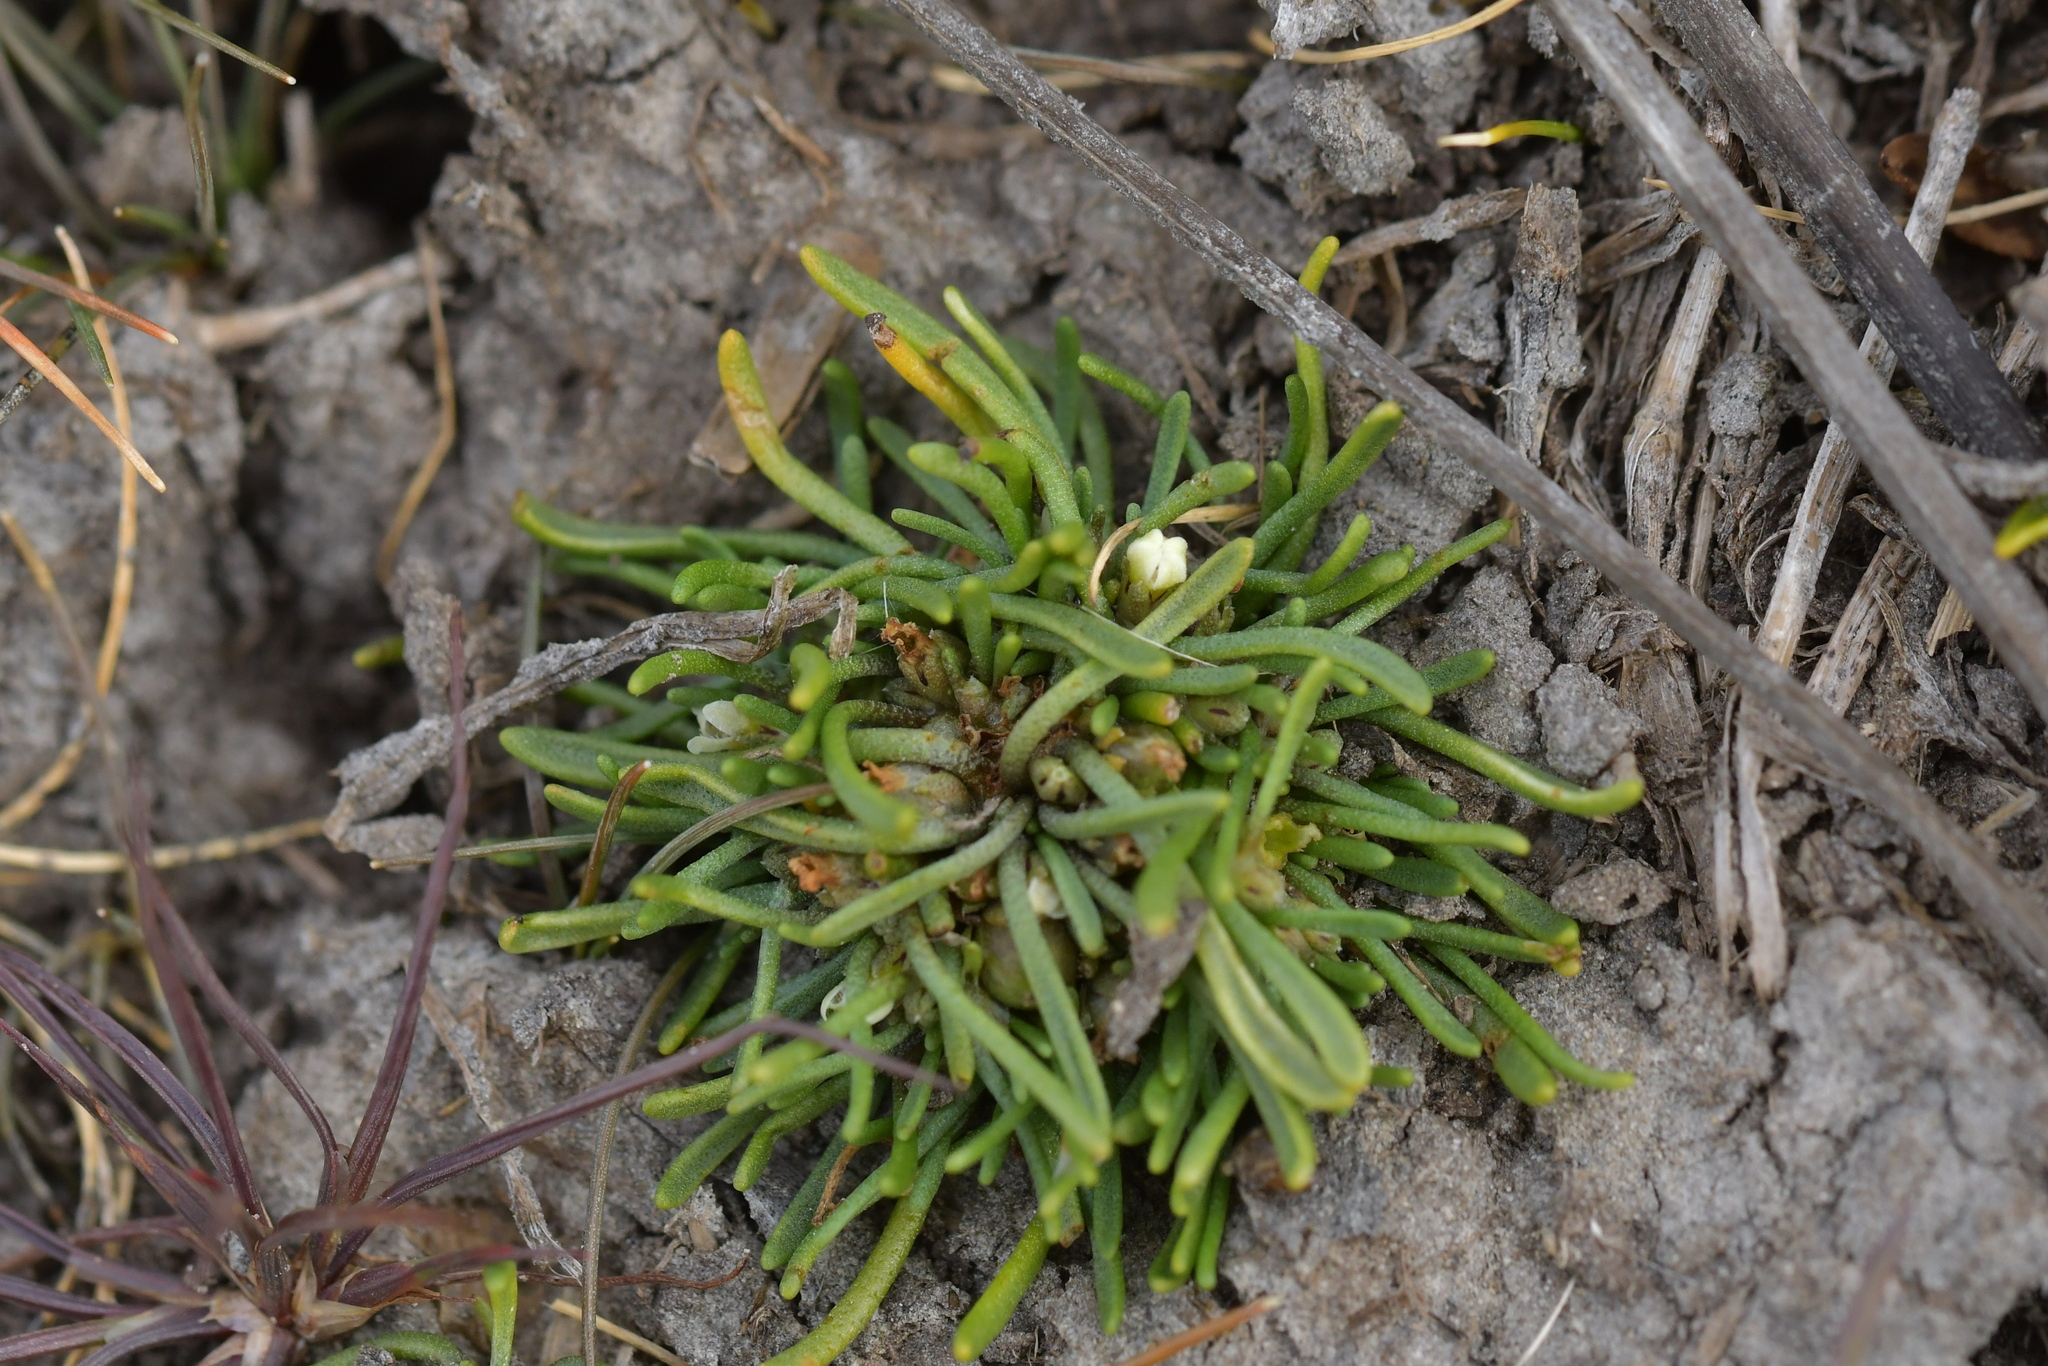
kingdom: Plantae
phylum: Tracheophyta
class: Magnoliopsida
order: Lamiales
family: Scrophulariaceae
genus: Limosella
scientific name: Limosella australis
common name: Welsh mudwort
